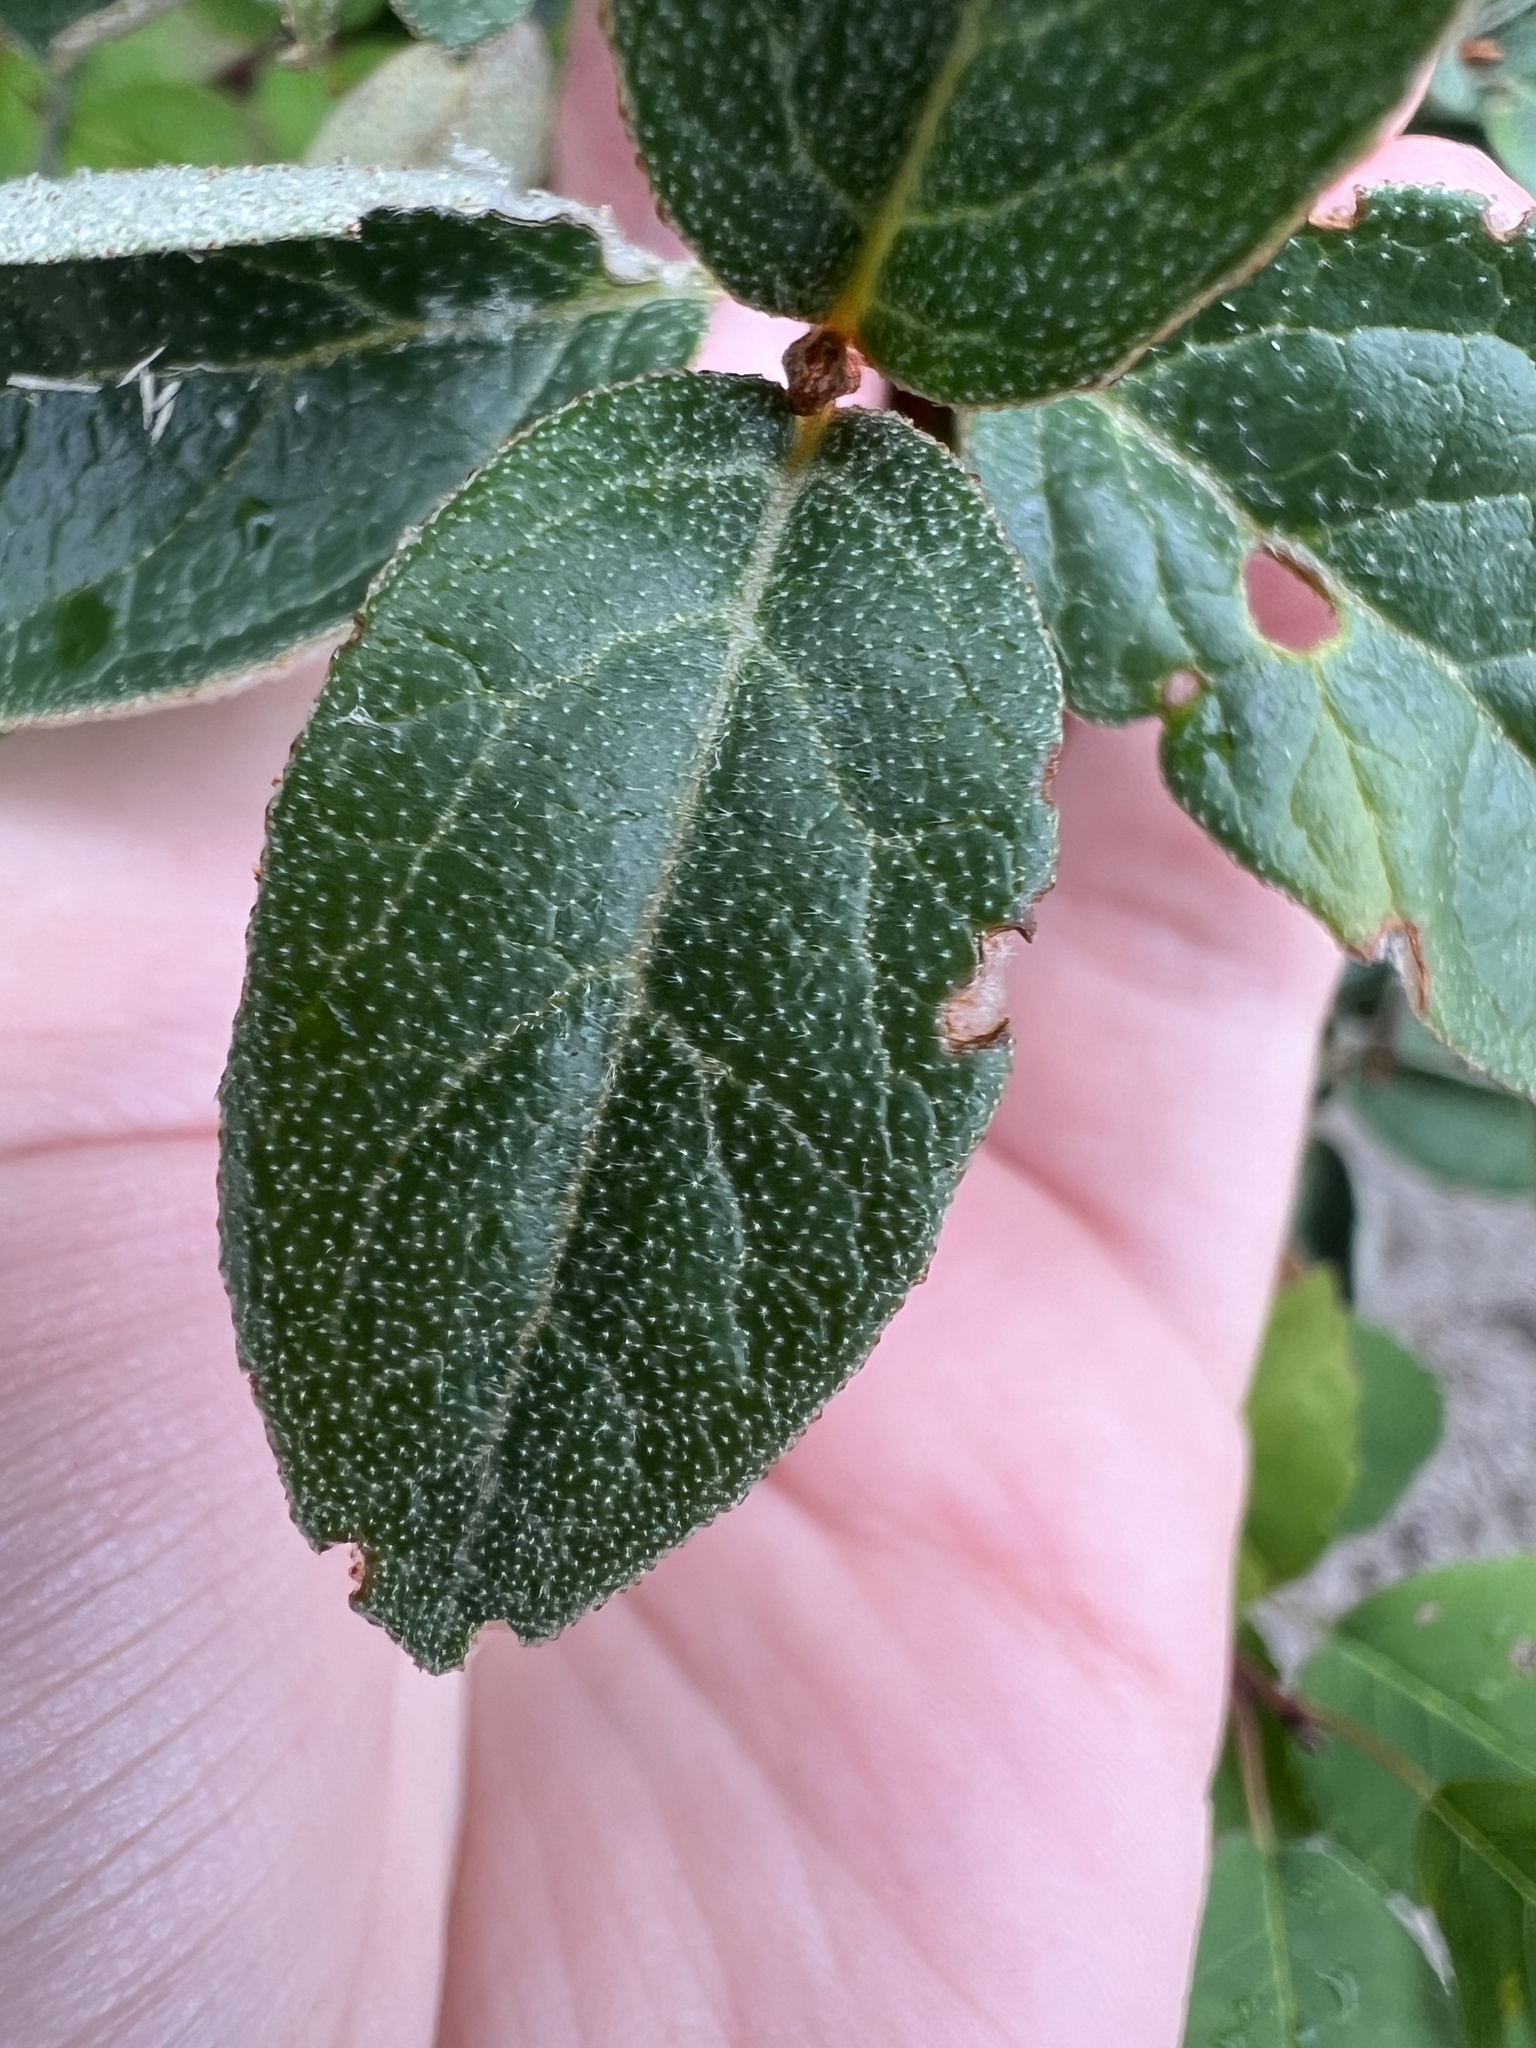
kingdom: Plantae
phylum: Tracheophyta
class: Magnoliopsida
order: Rosales
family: Elaeagnaceae
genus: Shepherdia
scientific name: Shepherdia canadensis
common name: Soapberry
